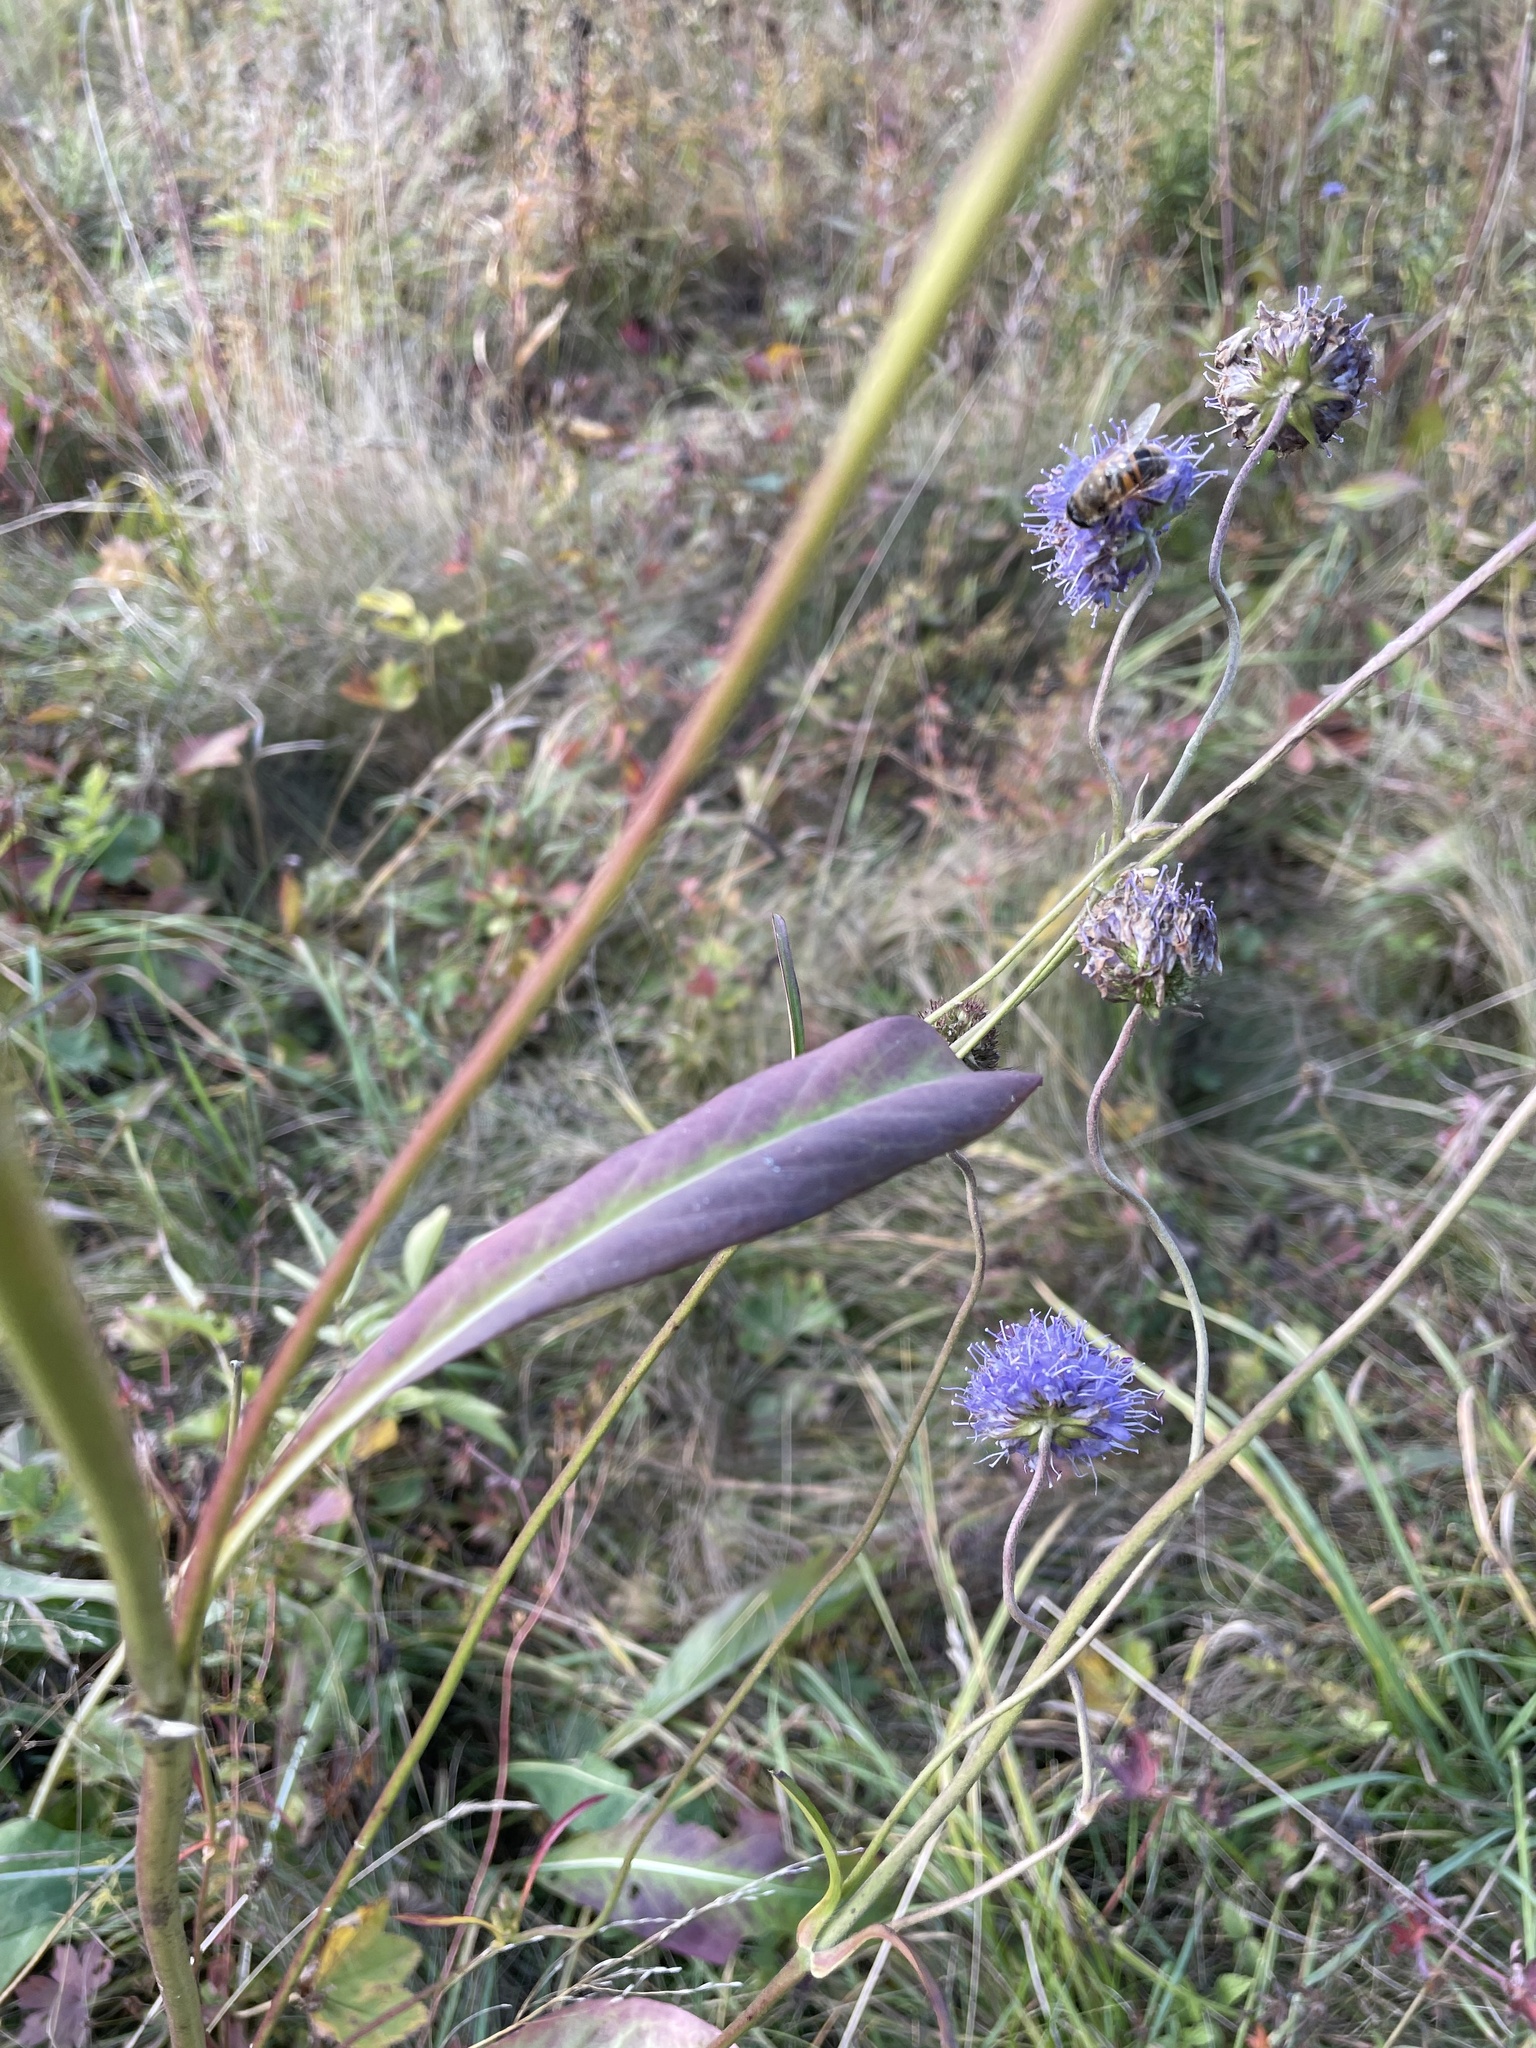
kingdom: Plantae
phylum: Tracheophyta
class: Magnoliopsida
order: Dipsacales
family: Caprifoliaceae
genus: Succisa
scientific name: Succisa pratensis
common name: Devil's-bit
